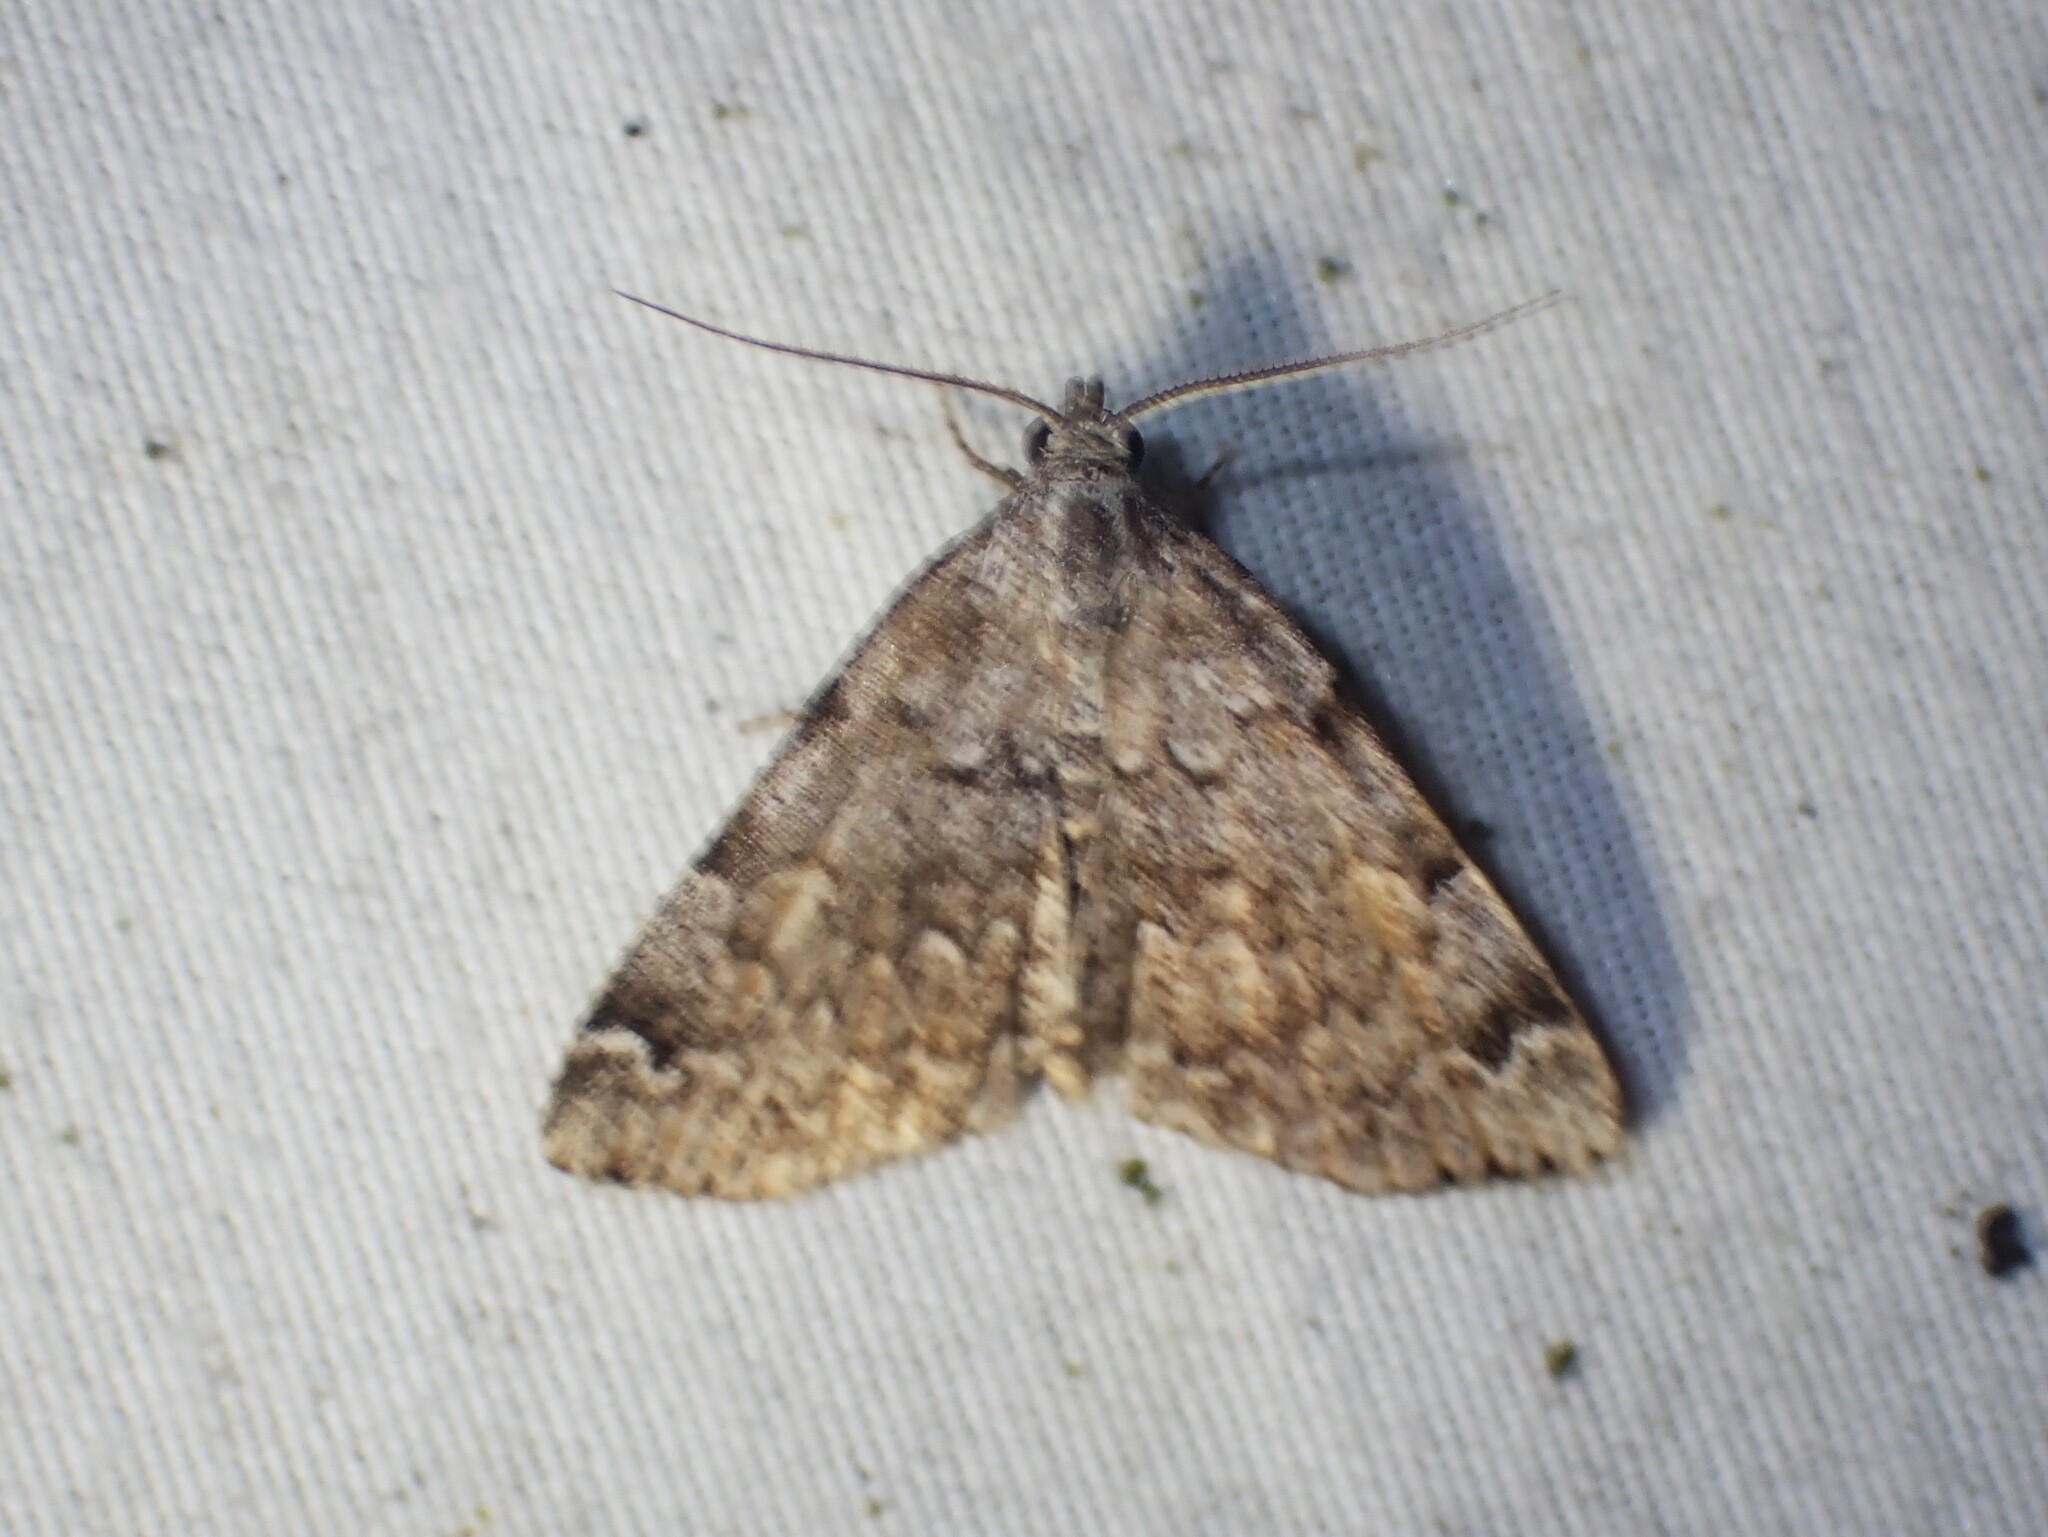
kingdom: Animalia
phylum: Arthropoda
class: Insecta
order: Lepidoptera
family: Erebidae
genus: Idia
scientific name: Idia americalis
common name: American idia moth
